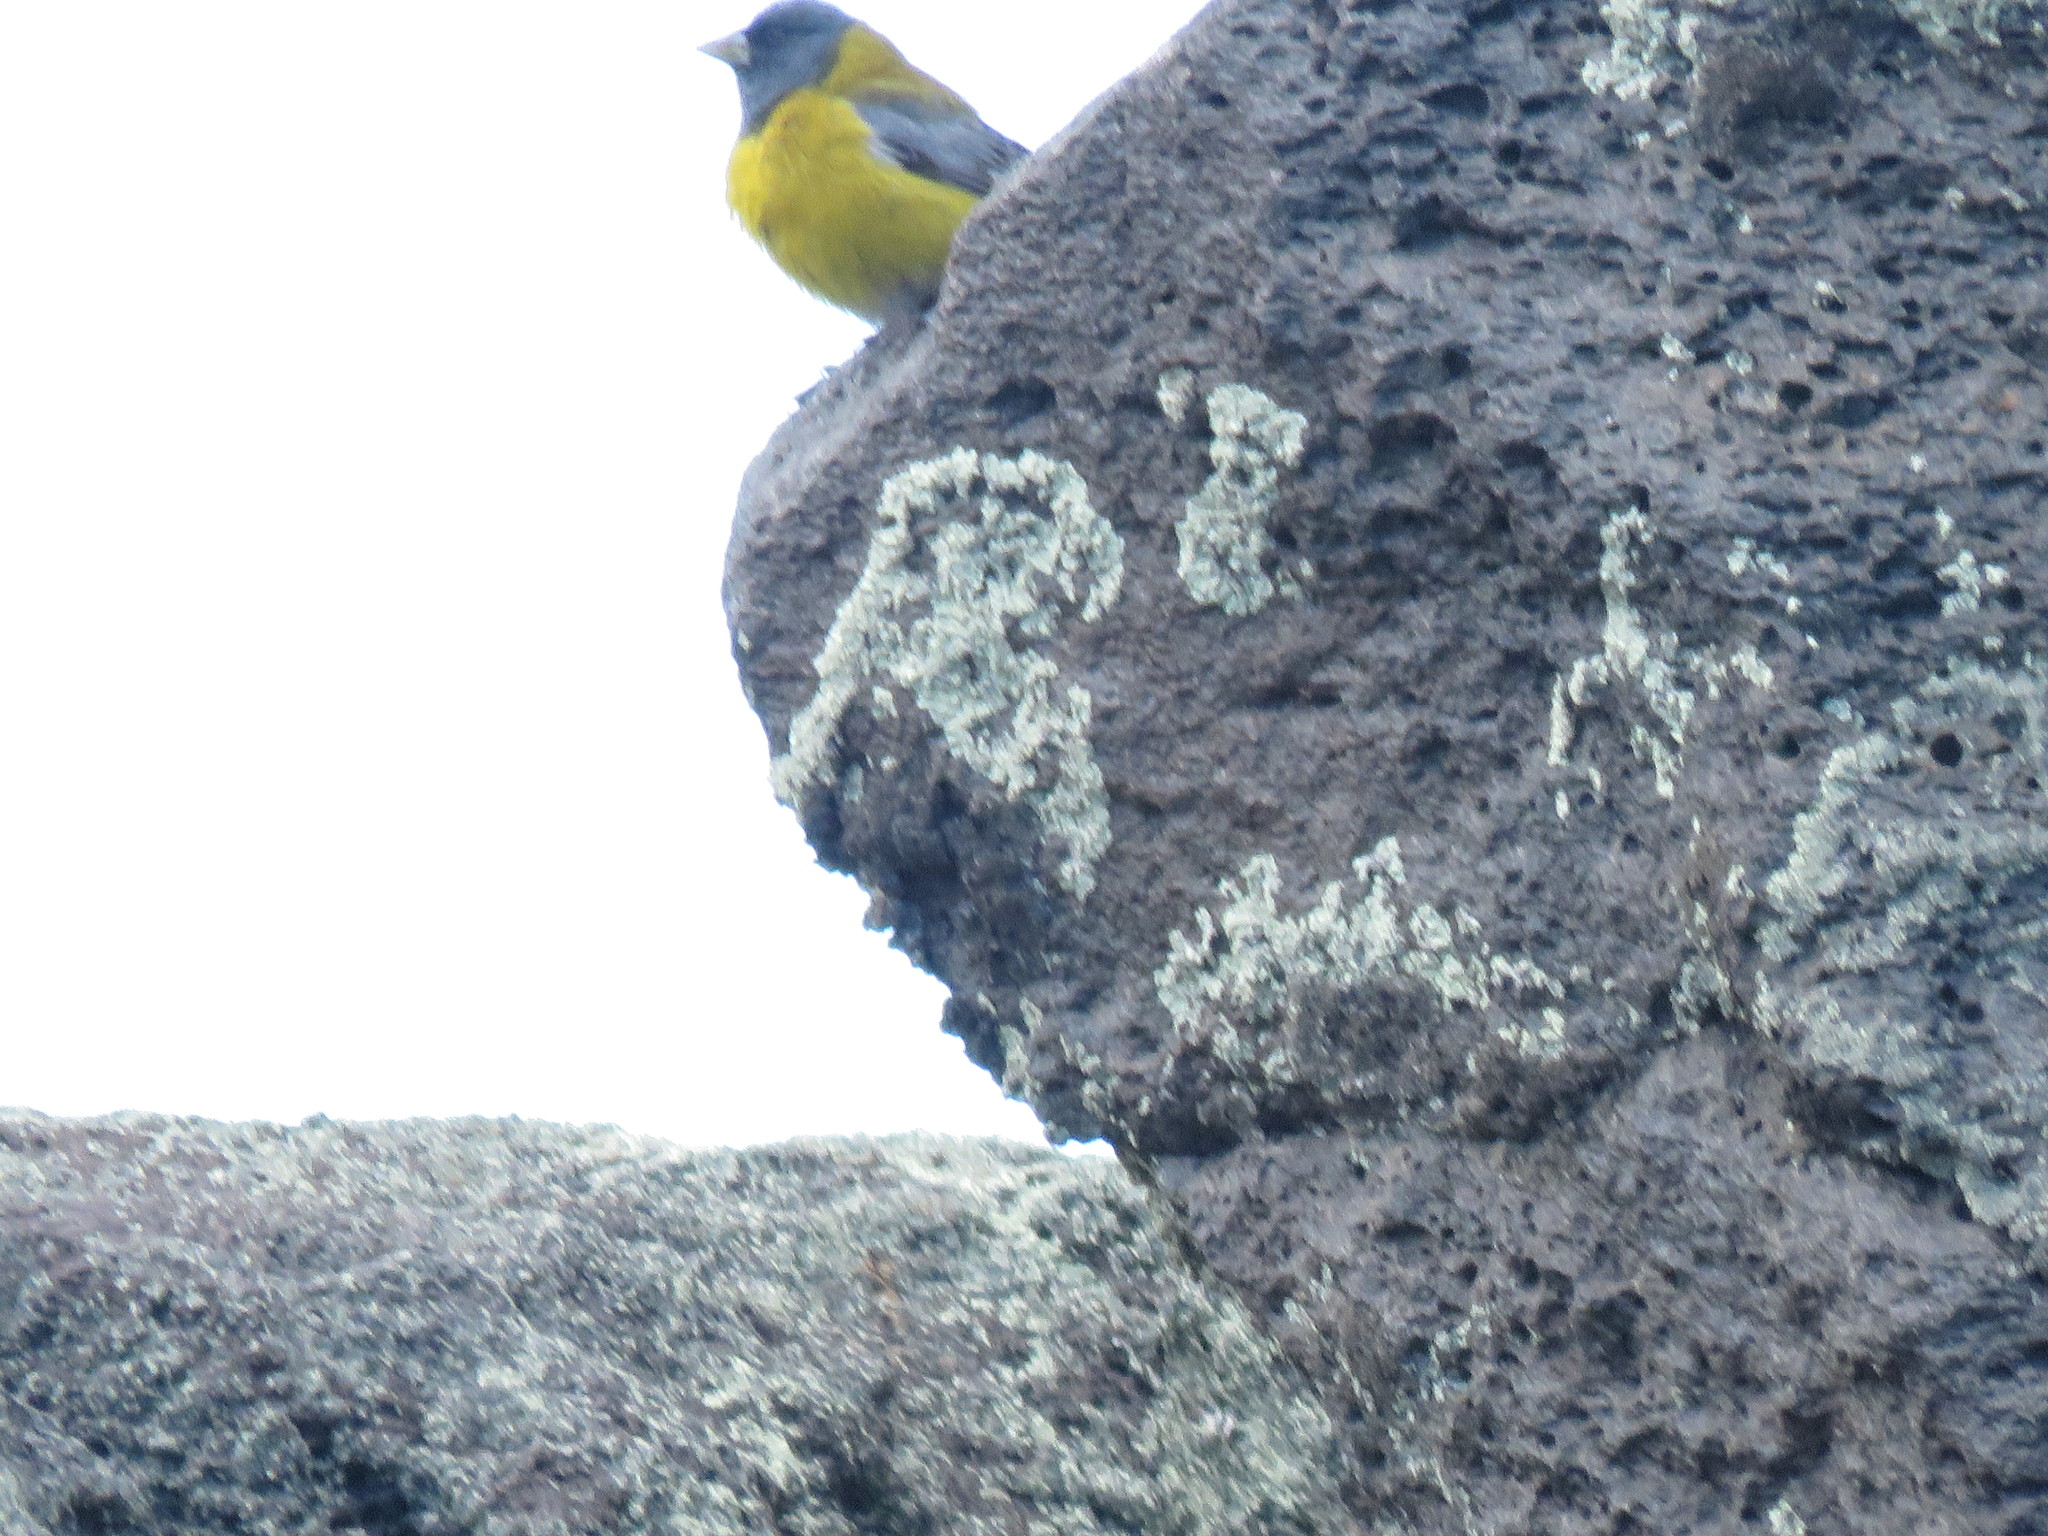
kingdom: Animalia
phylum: Chordata
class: Aves
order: Passeriformes
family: Thraupidae
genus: Phrygilus
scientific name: Phrygilus gayi
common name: Grey-hooded sierra finch
